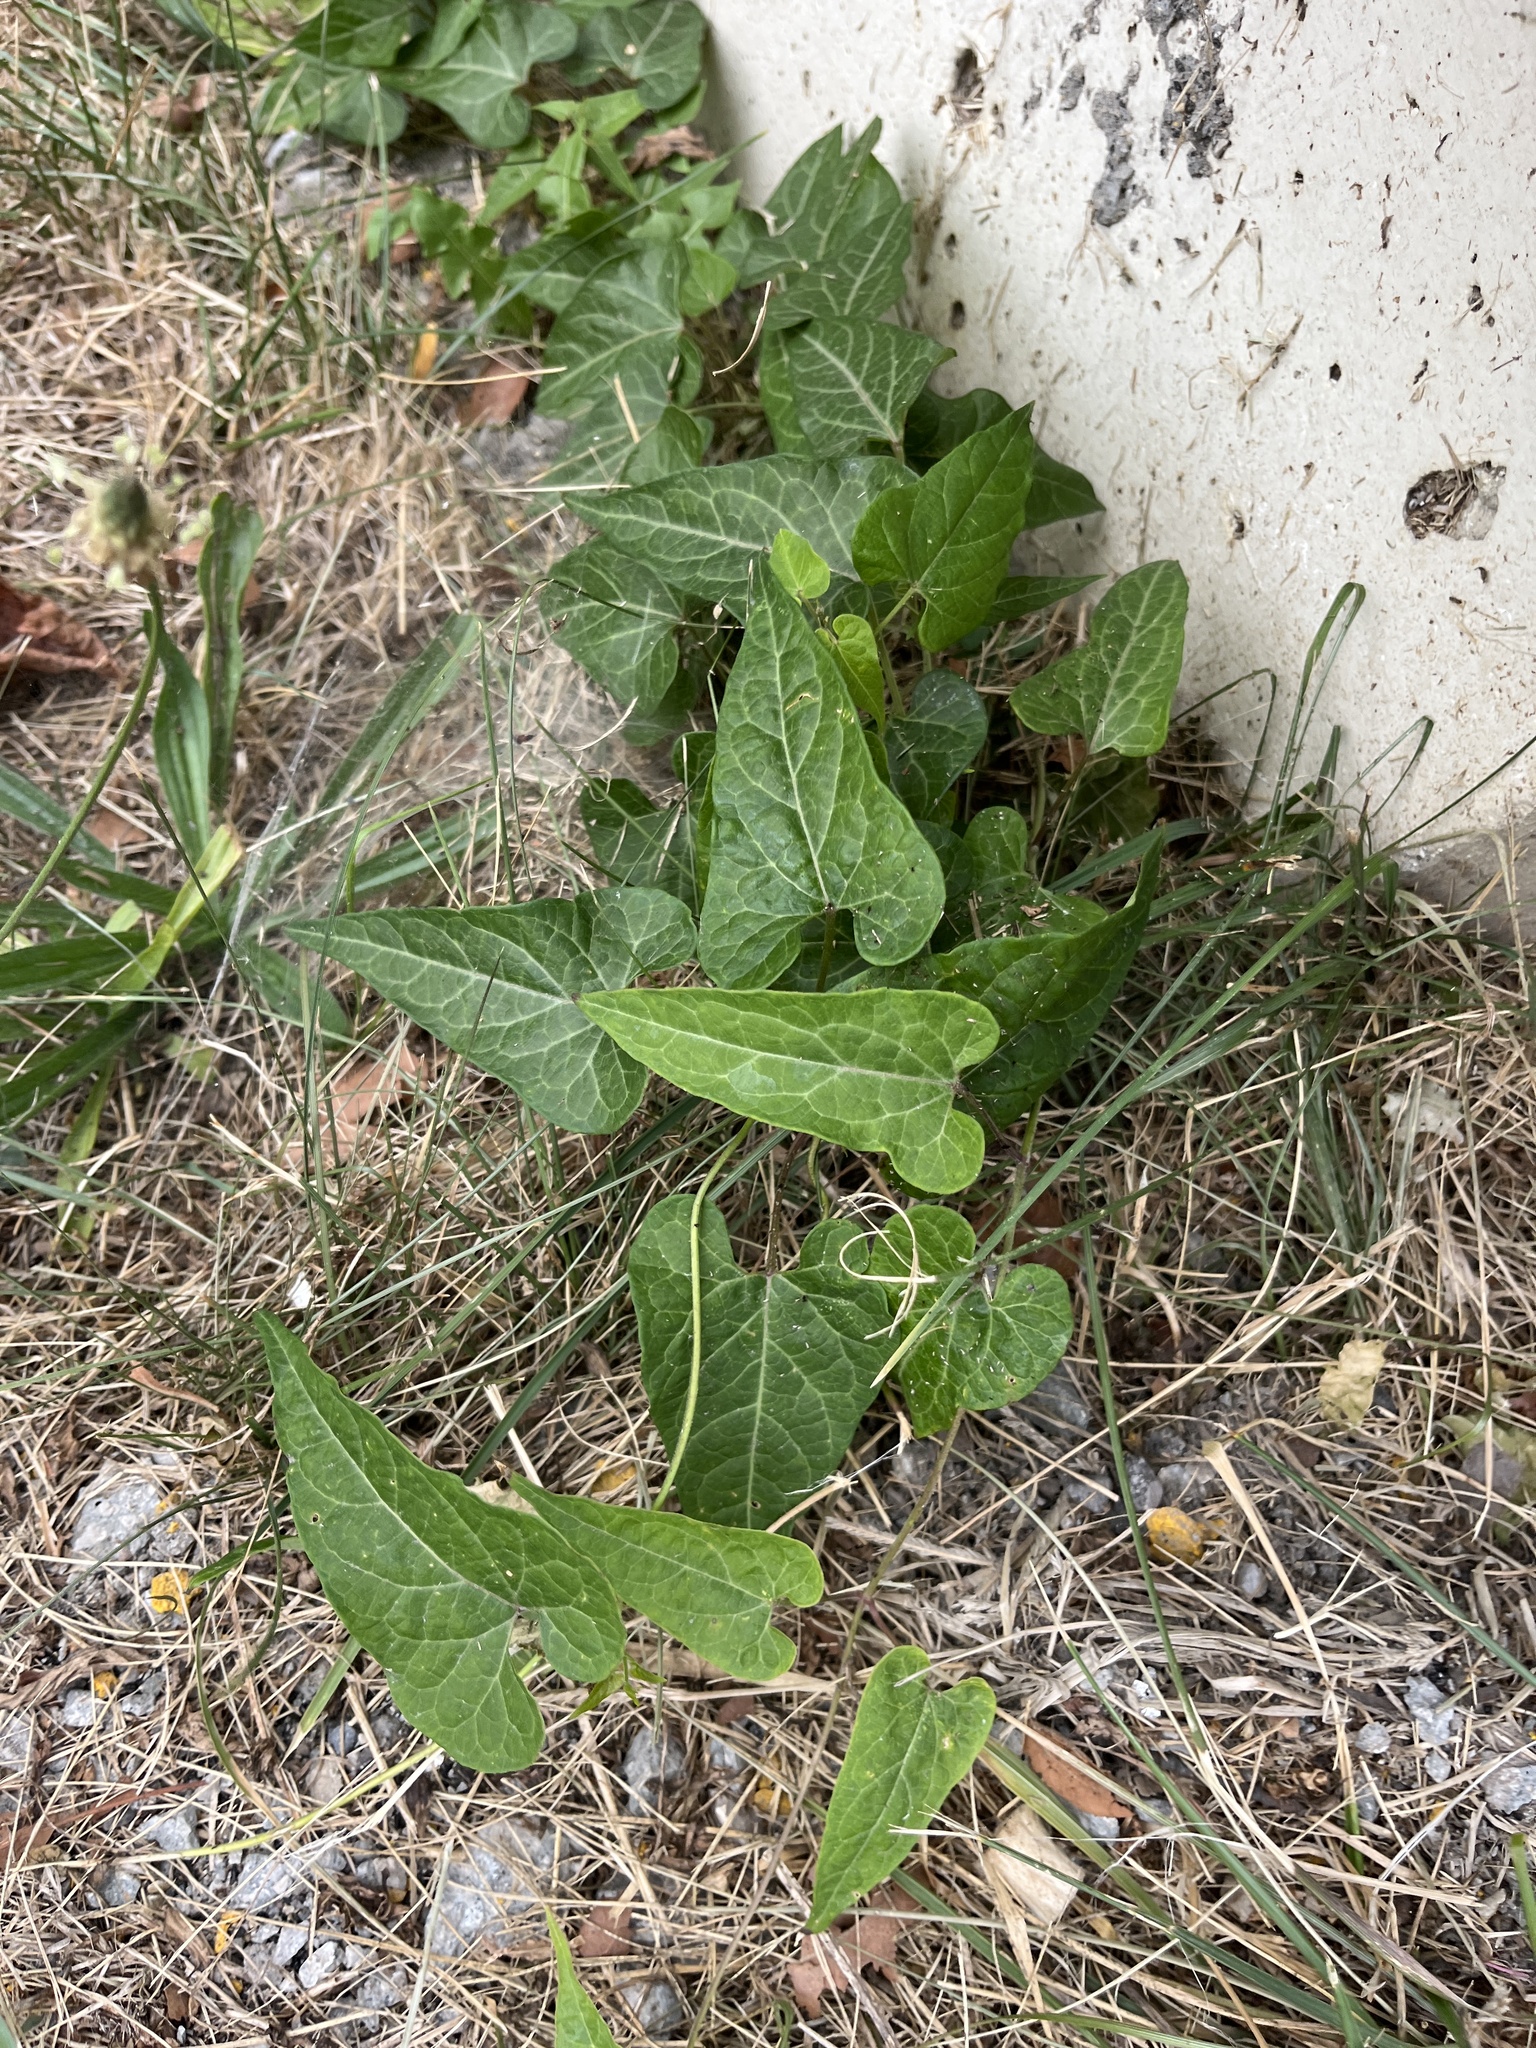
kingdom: Plantae
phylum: Tracheophyta
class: Magnoliopsida
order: Gentianales
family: Apocynaceae
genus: Cynanchum
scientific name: Cynanchum laeve
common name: Sandvine
